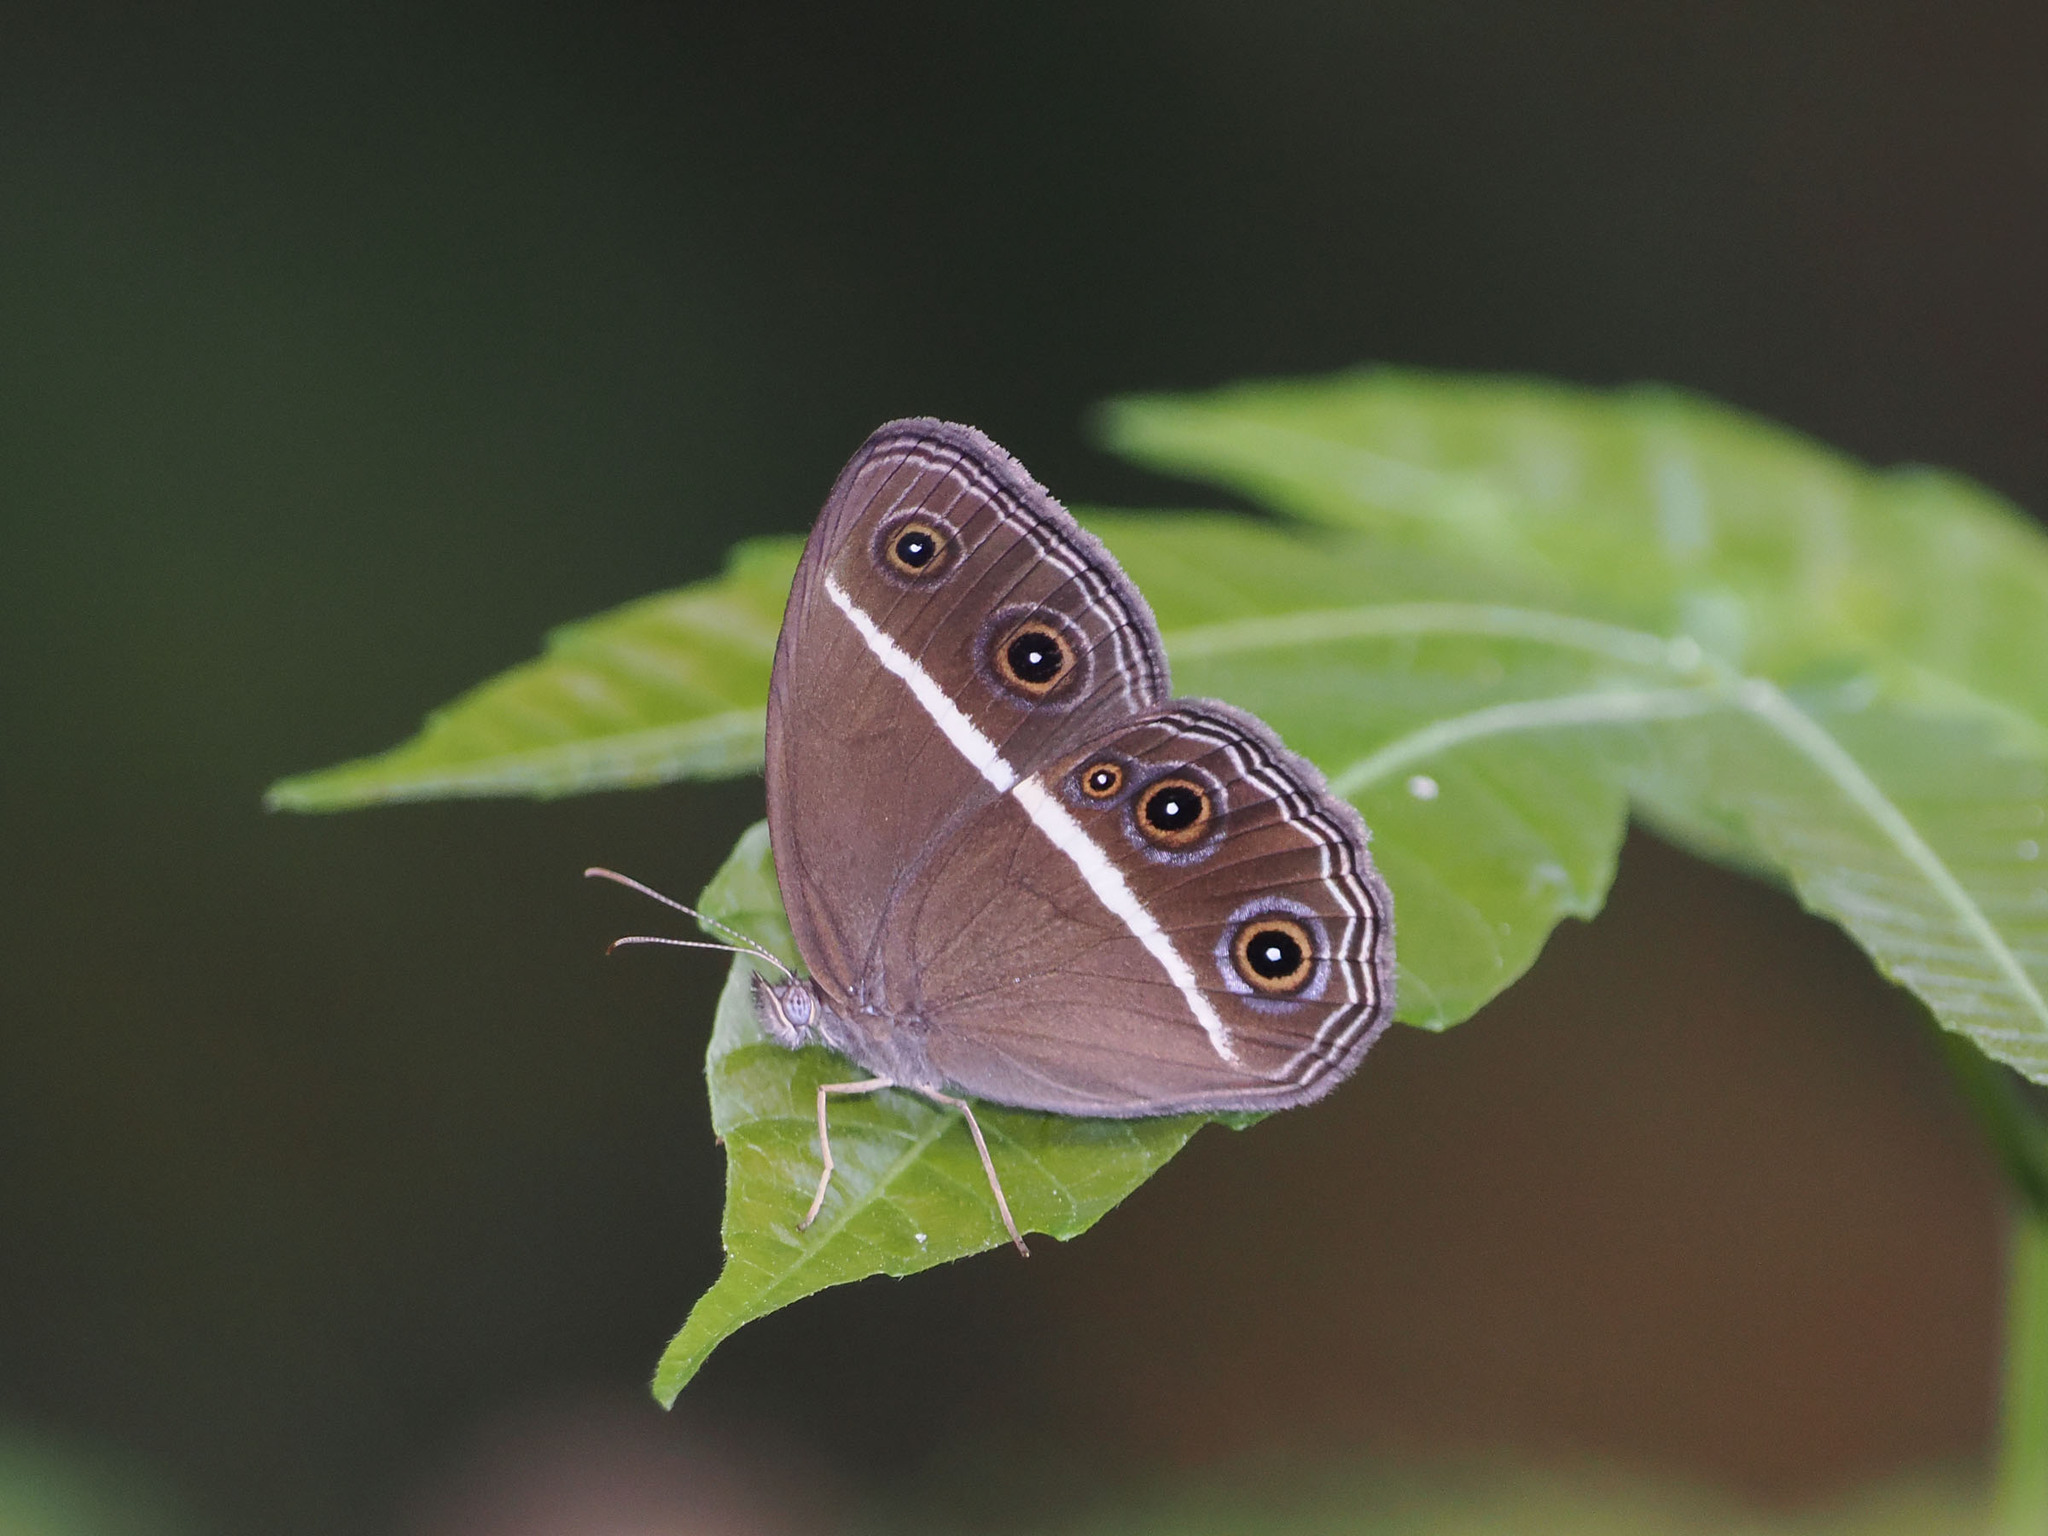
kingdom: Animalia
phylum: Arthropoda
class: Insecta
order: Lepidoptera
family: Nymphalidae
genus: Orsotriaena
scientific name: Orsotriaena medus
